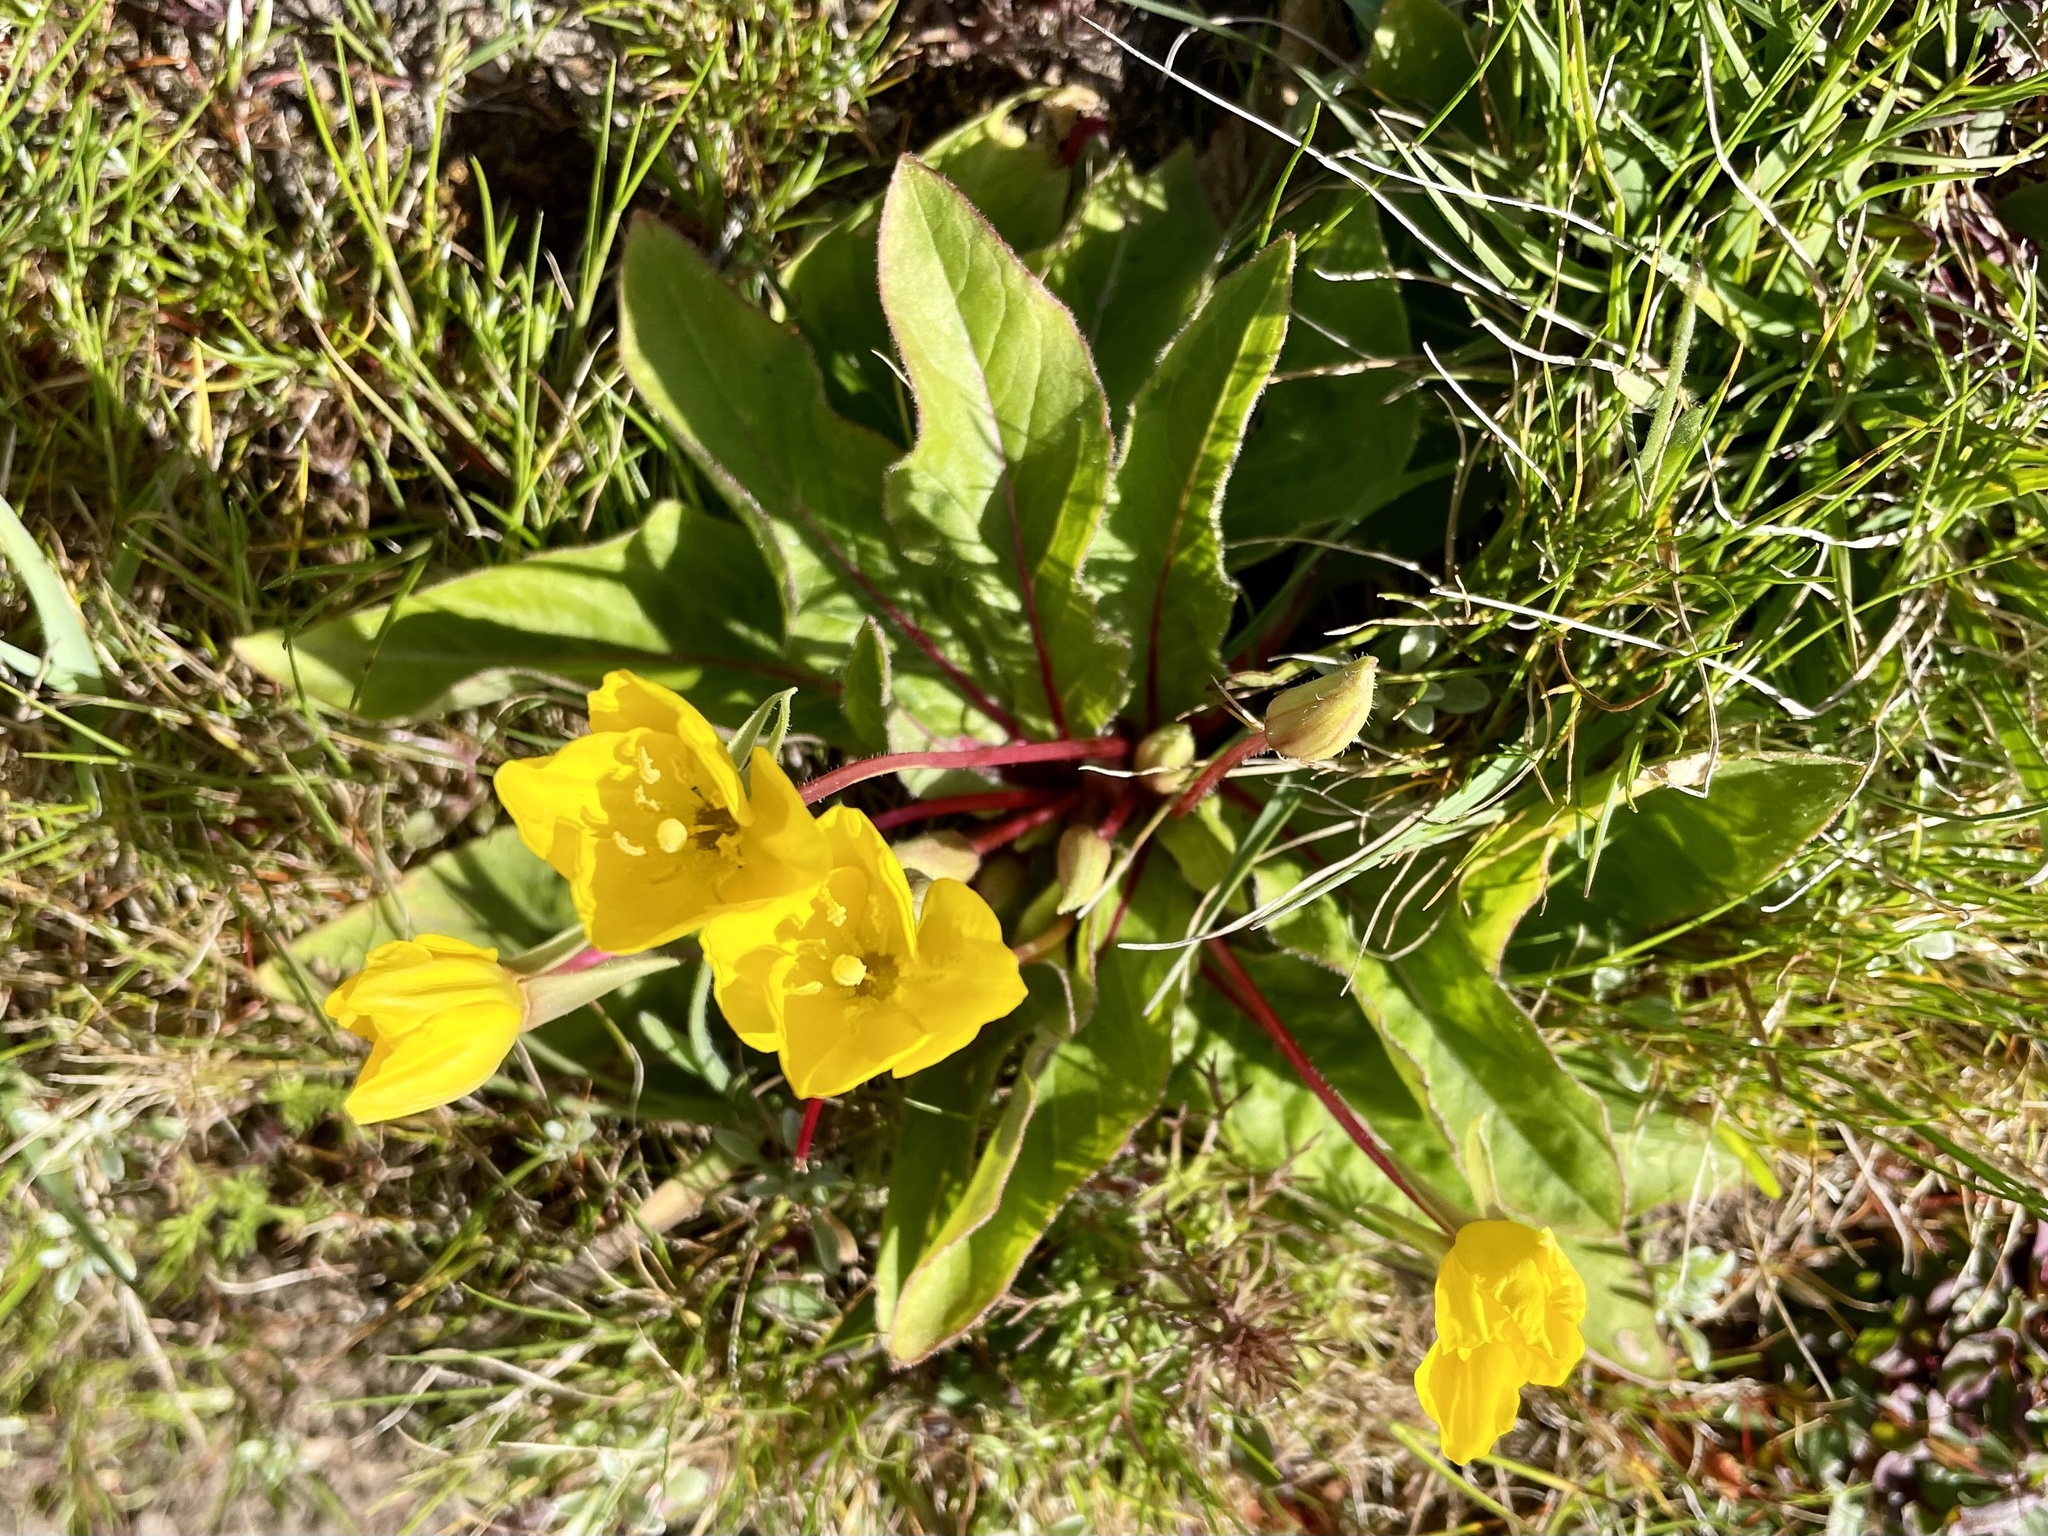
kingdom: Plantae
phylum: Tracheophyta
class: Magnoliopsida
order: Myrtales
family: Onagraceae
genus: Taraxia
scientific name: Taraxia ovata
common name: Goldeneggs
